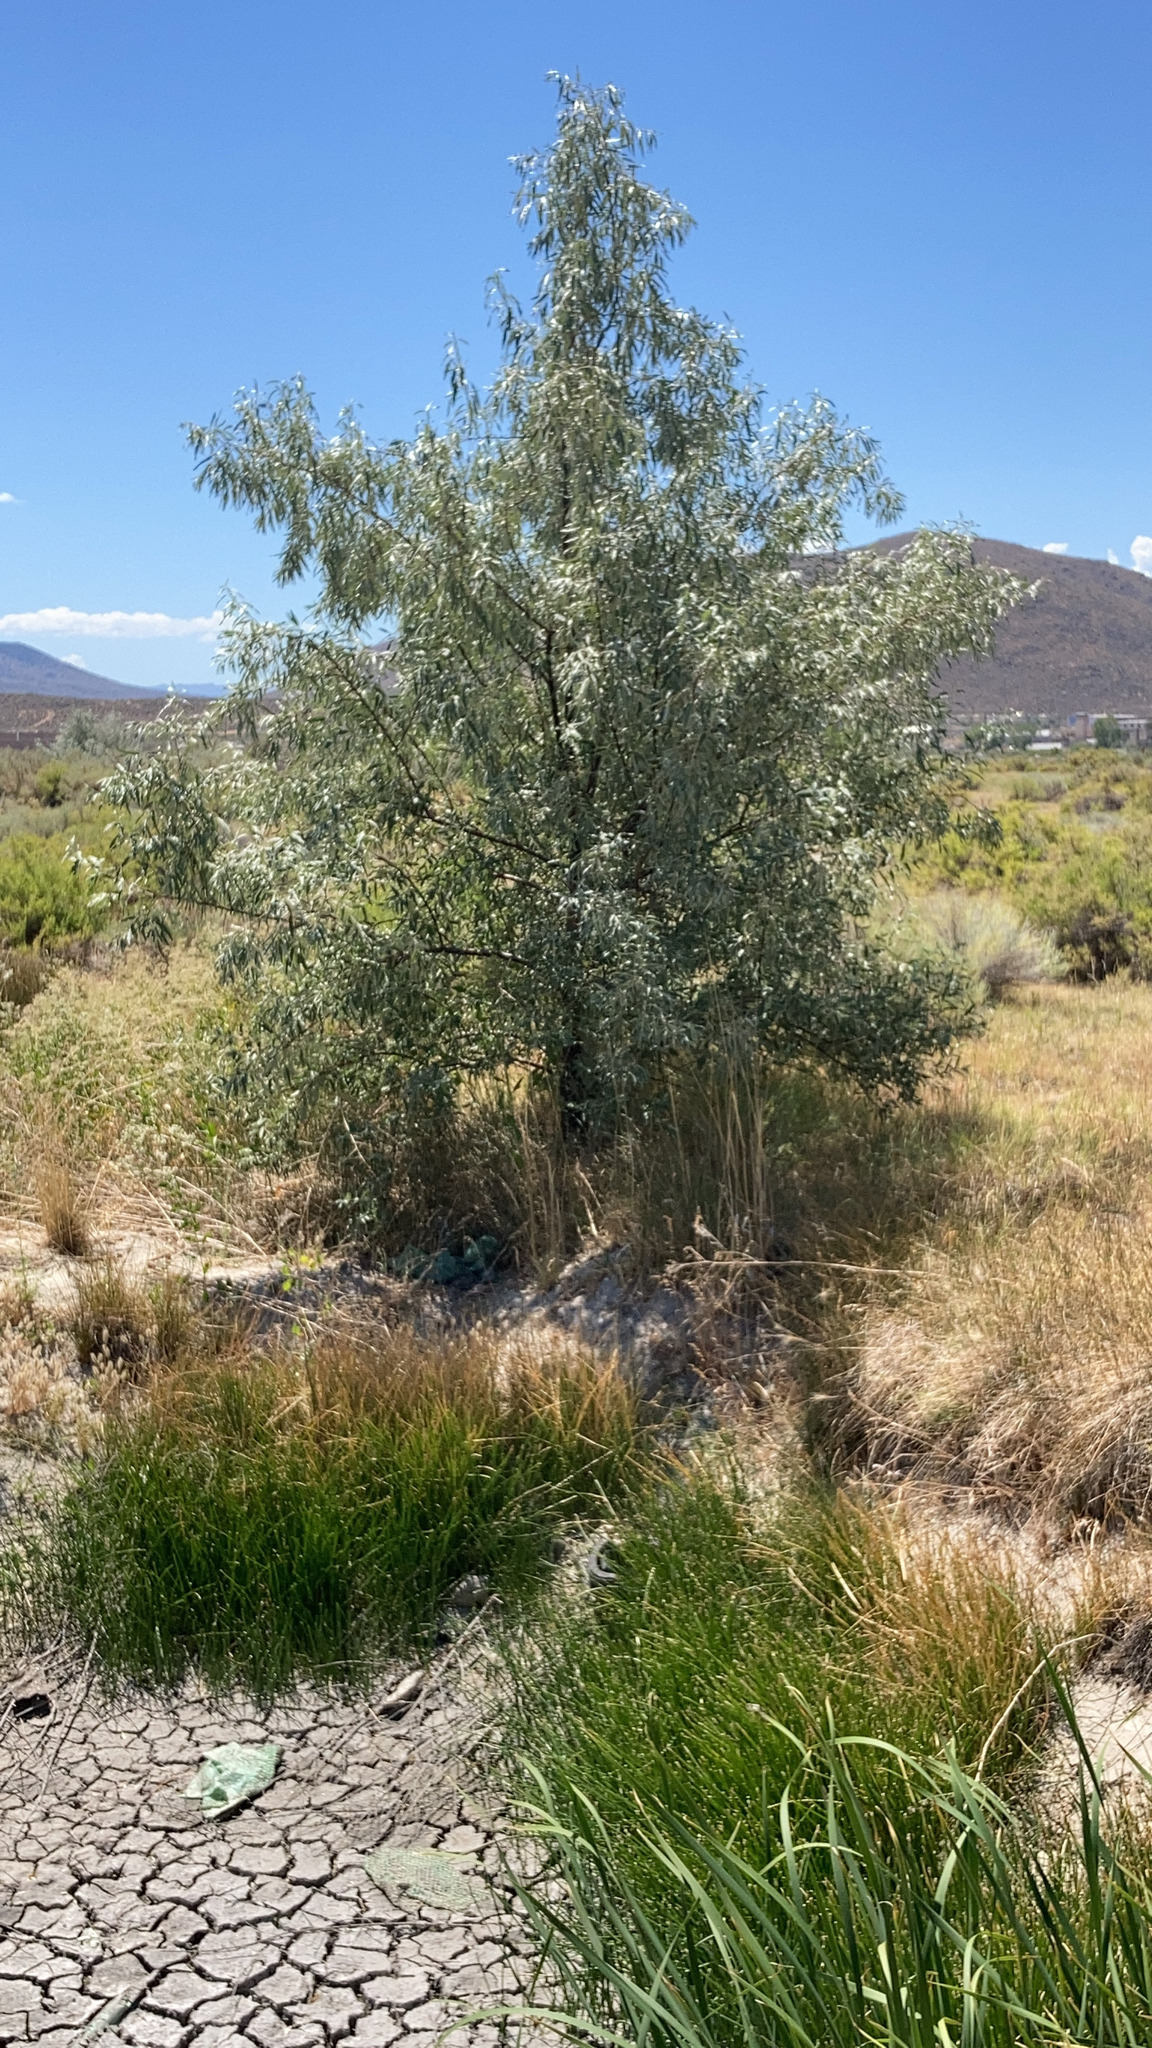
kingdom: Plantae
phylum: Tracheophyta
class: Magnoliopsida
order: Rosales
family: Elaeagnaceae
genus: Elaeagnus
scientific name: Elaeagnus angustifolia
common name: Russian olive
